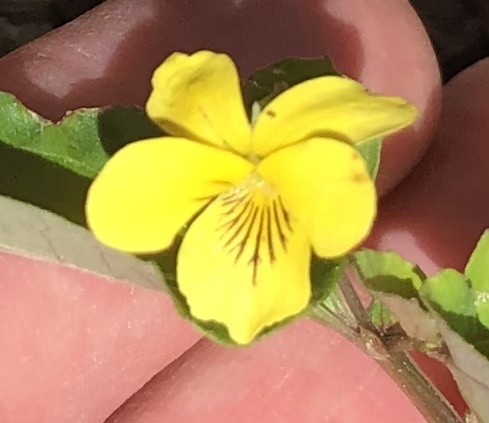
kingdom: Plantae
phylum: Tracheophyta
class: Magnoliopsida
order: Malpighiales
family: Violaceae
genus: Viola
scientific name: Viola hastata
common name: Spear-leaf violet
